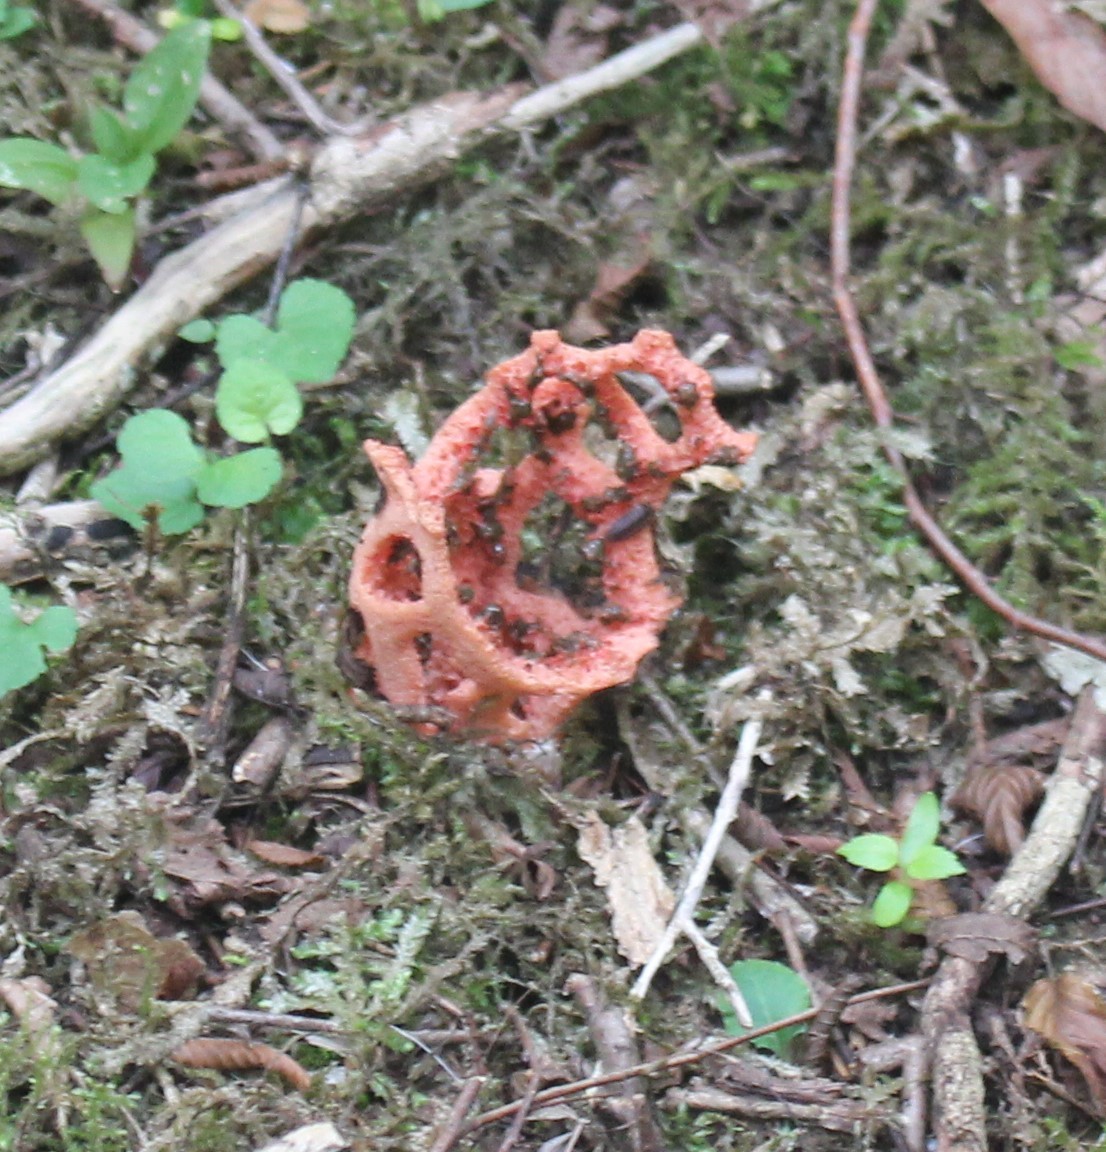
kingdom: Fungi
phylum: Basidiomycota
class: Agaricomycetes
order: Phallales
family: Phallaceae
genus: Clathrus
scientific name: Clathrus ruber
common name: Red cage
